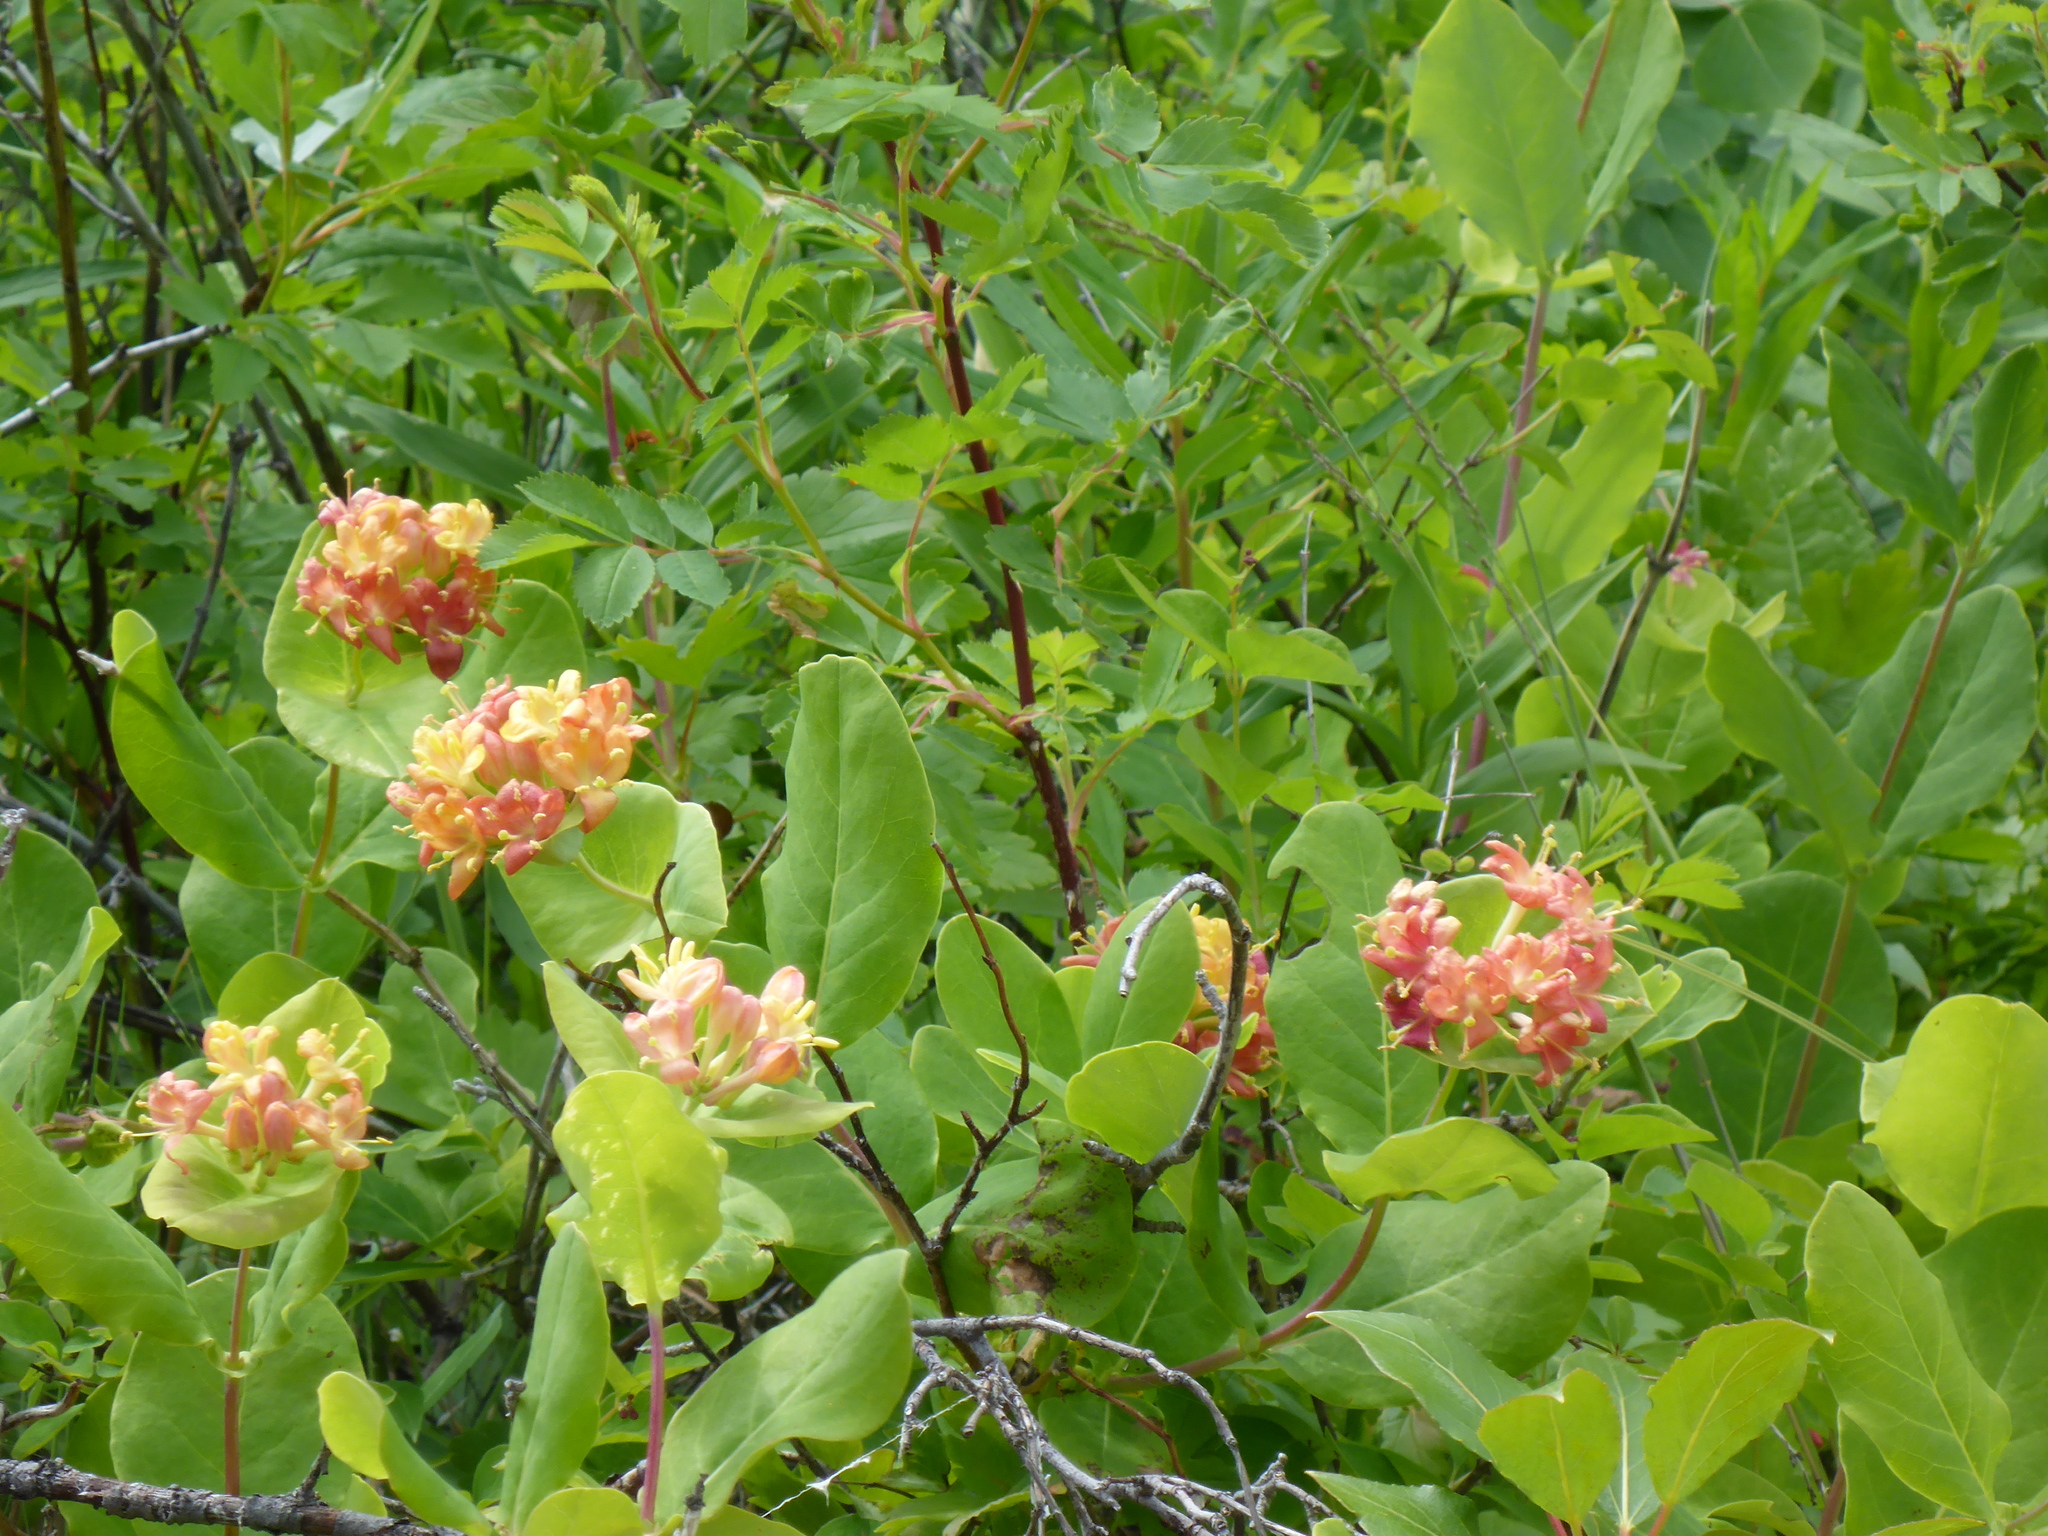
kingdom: Plantae
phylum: Tracheophyta
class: Magnoliopsida
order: Dipsacales
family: Caprifoliaceae
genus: Lonicera
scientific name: Lonicera dioica
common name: Limber honeysuckle
